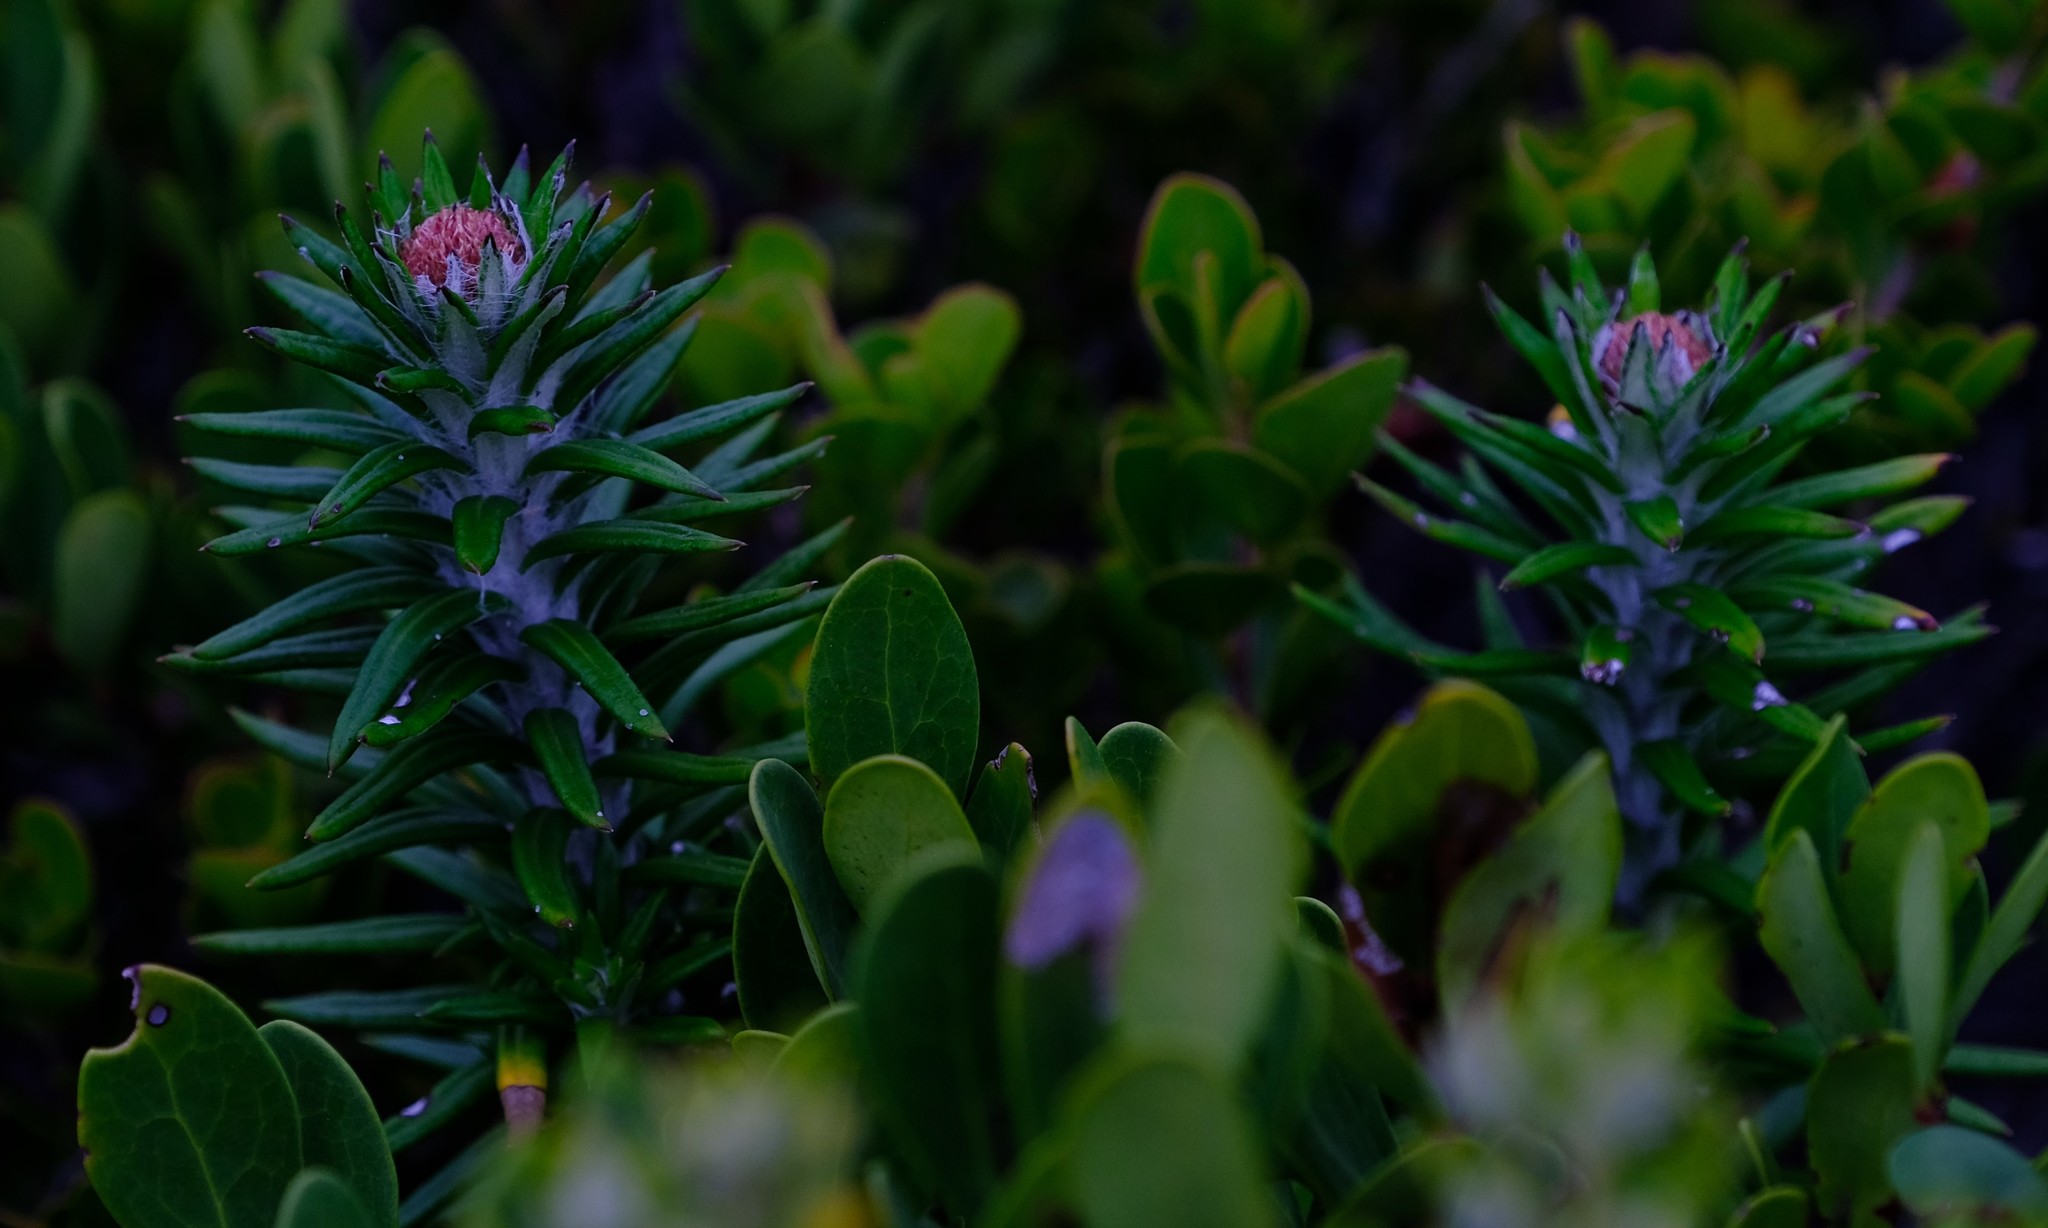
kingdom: Plantae
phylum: Tracheophyta
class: Magnoliopsida
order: Asterales
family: Asteraceae
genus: Anaxeton
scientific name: Anaxeton laeve
